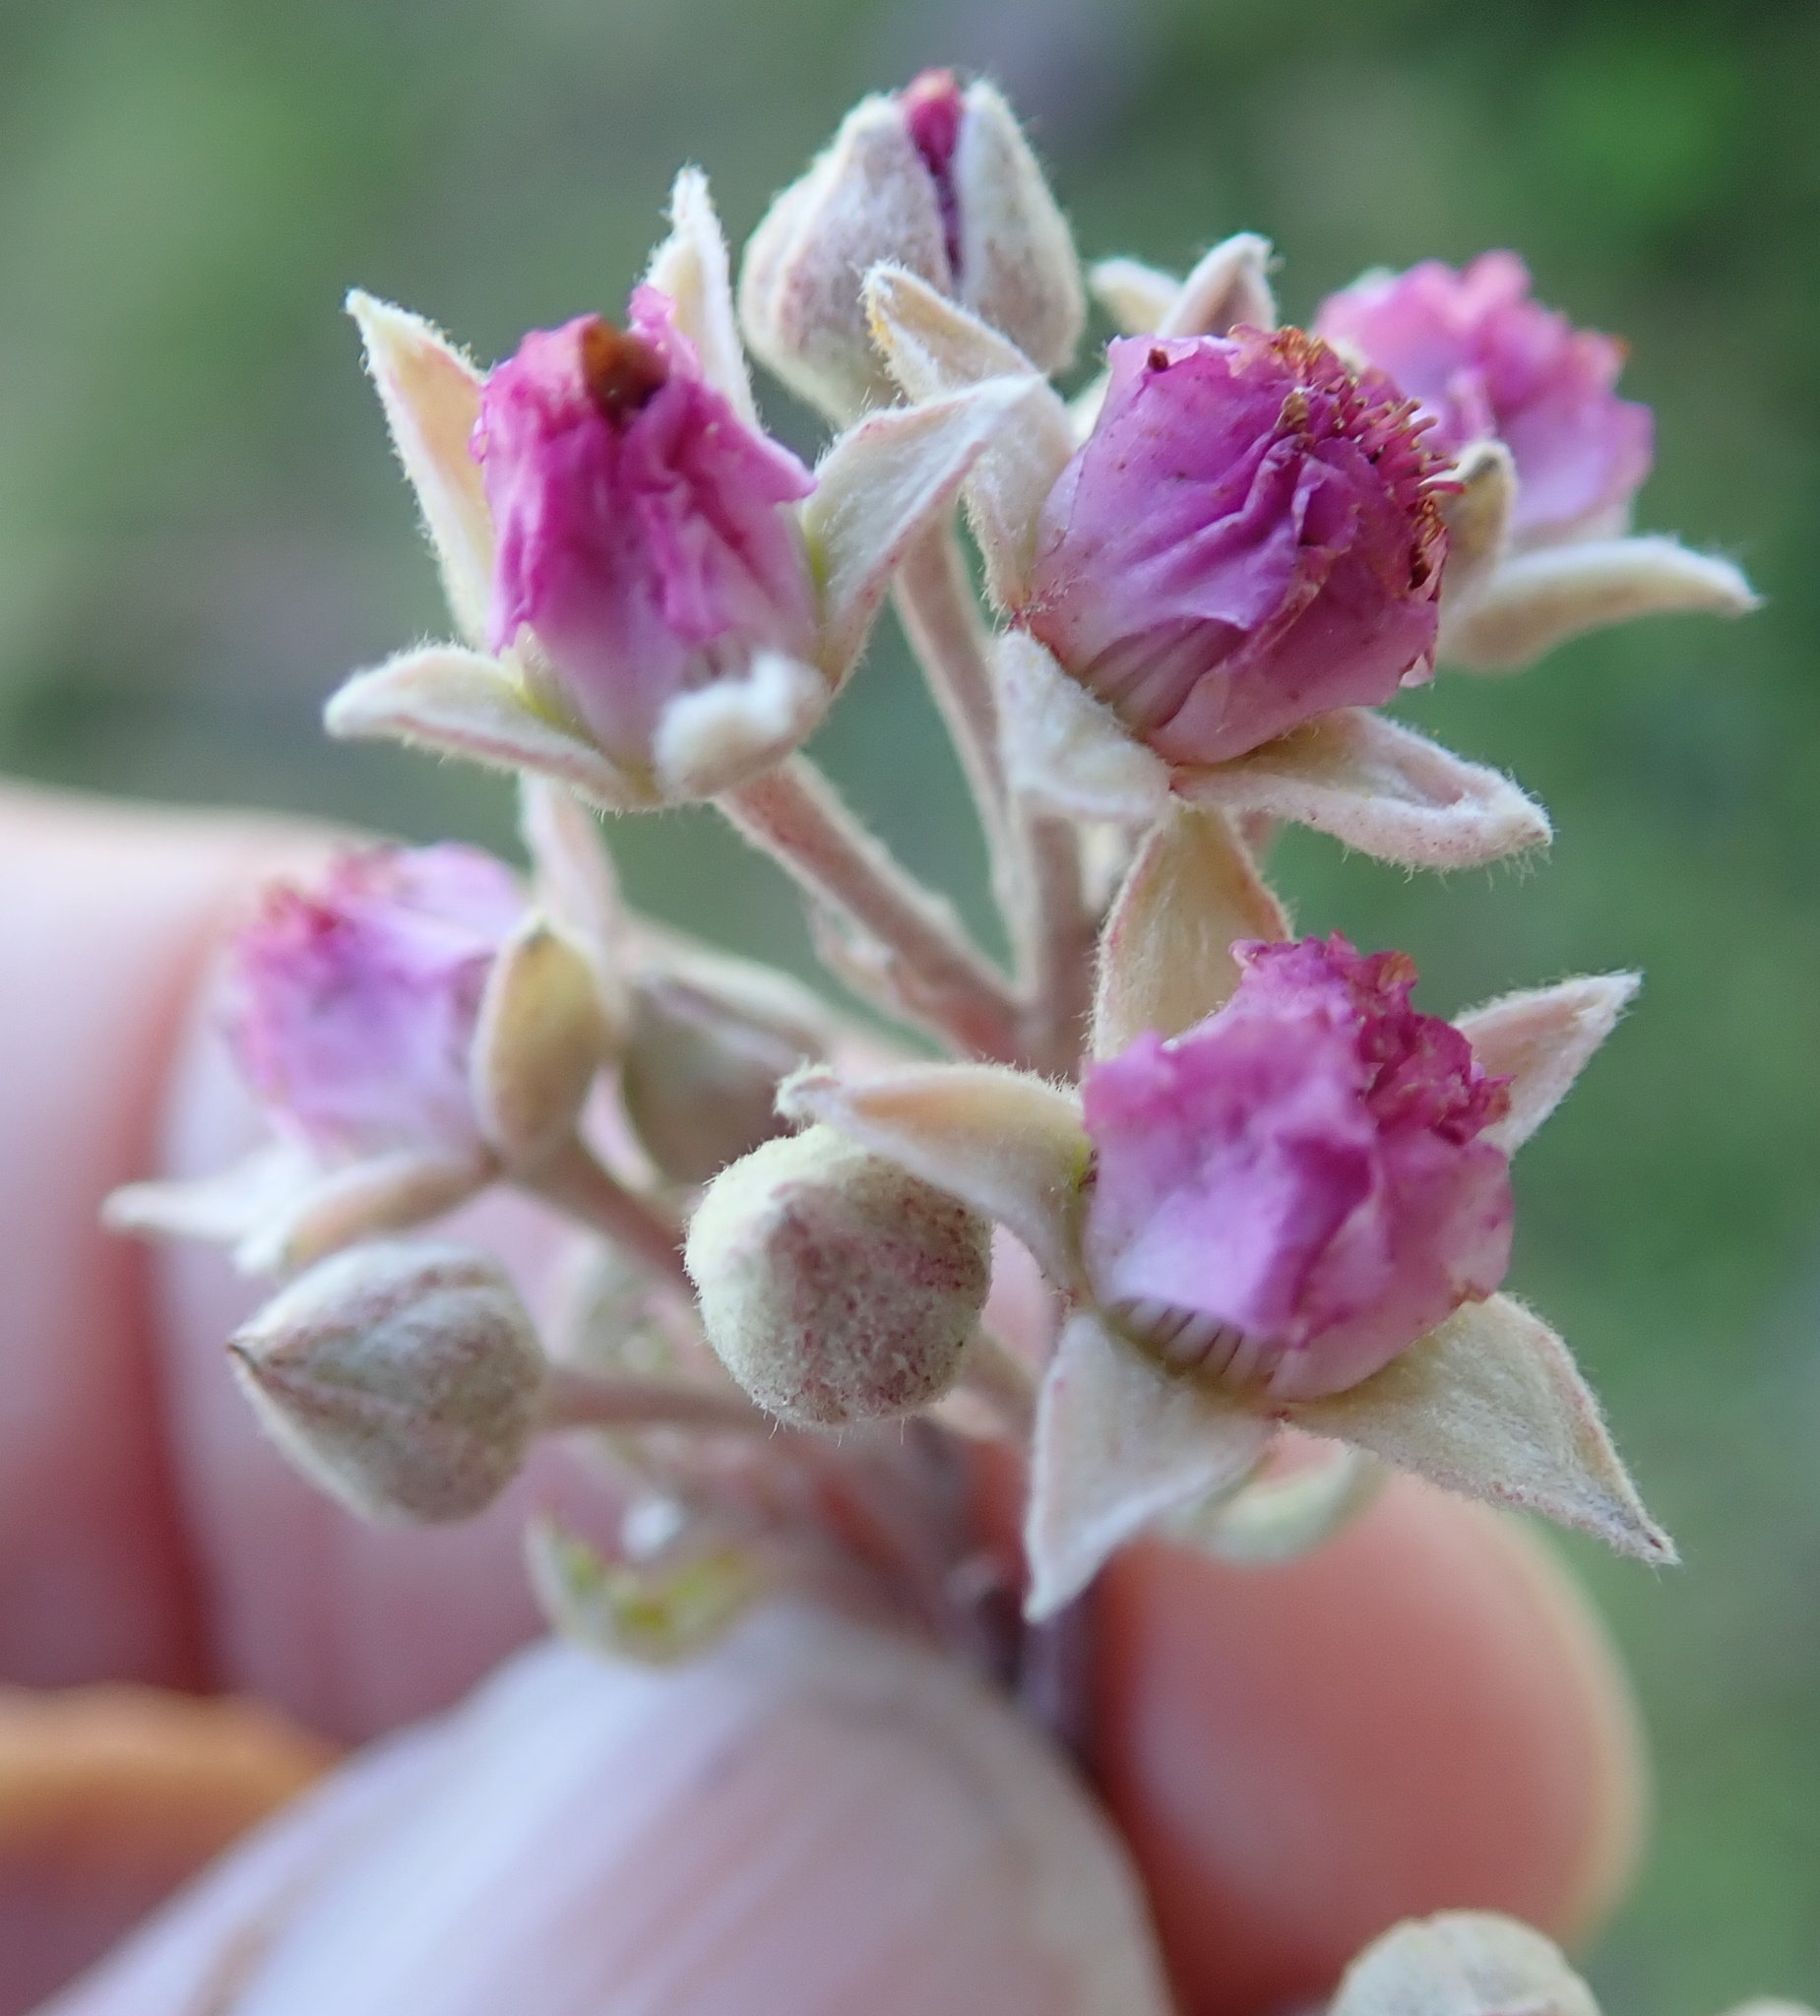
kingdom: Plantae
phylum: Tracheophyta
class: Magnoliopsida
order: Rosales
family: Rosaceae
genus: Rubus
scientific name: Rubus ludwigii
